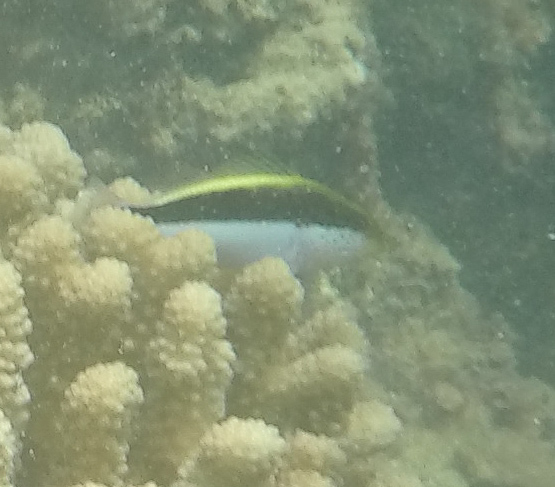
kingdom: Animalia
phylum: Chordata
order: Perciformes
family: Cirrhitidae
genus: Paracirrhites
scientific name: Paracirrhites forsteri
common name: Freckled hawkfish
